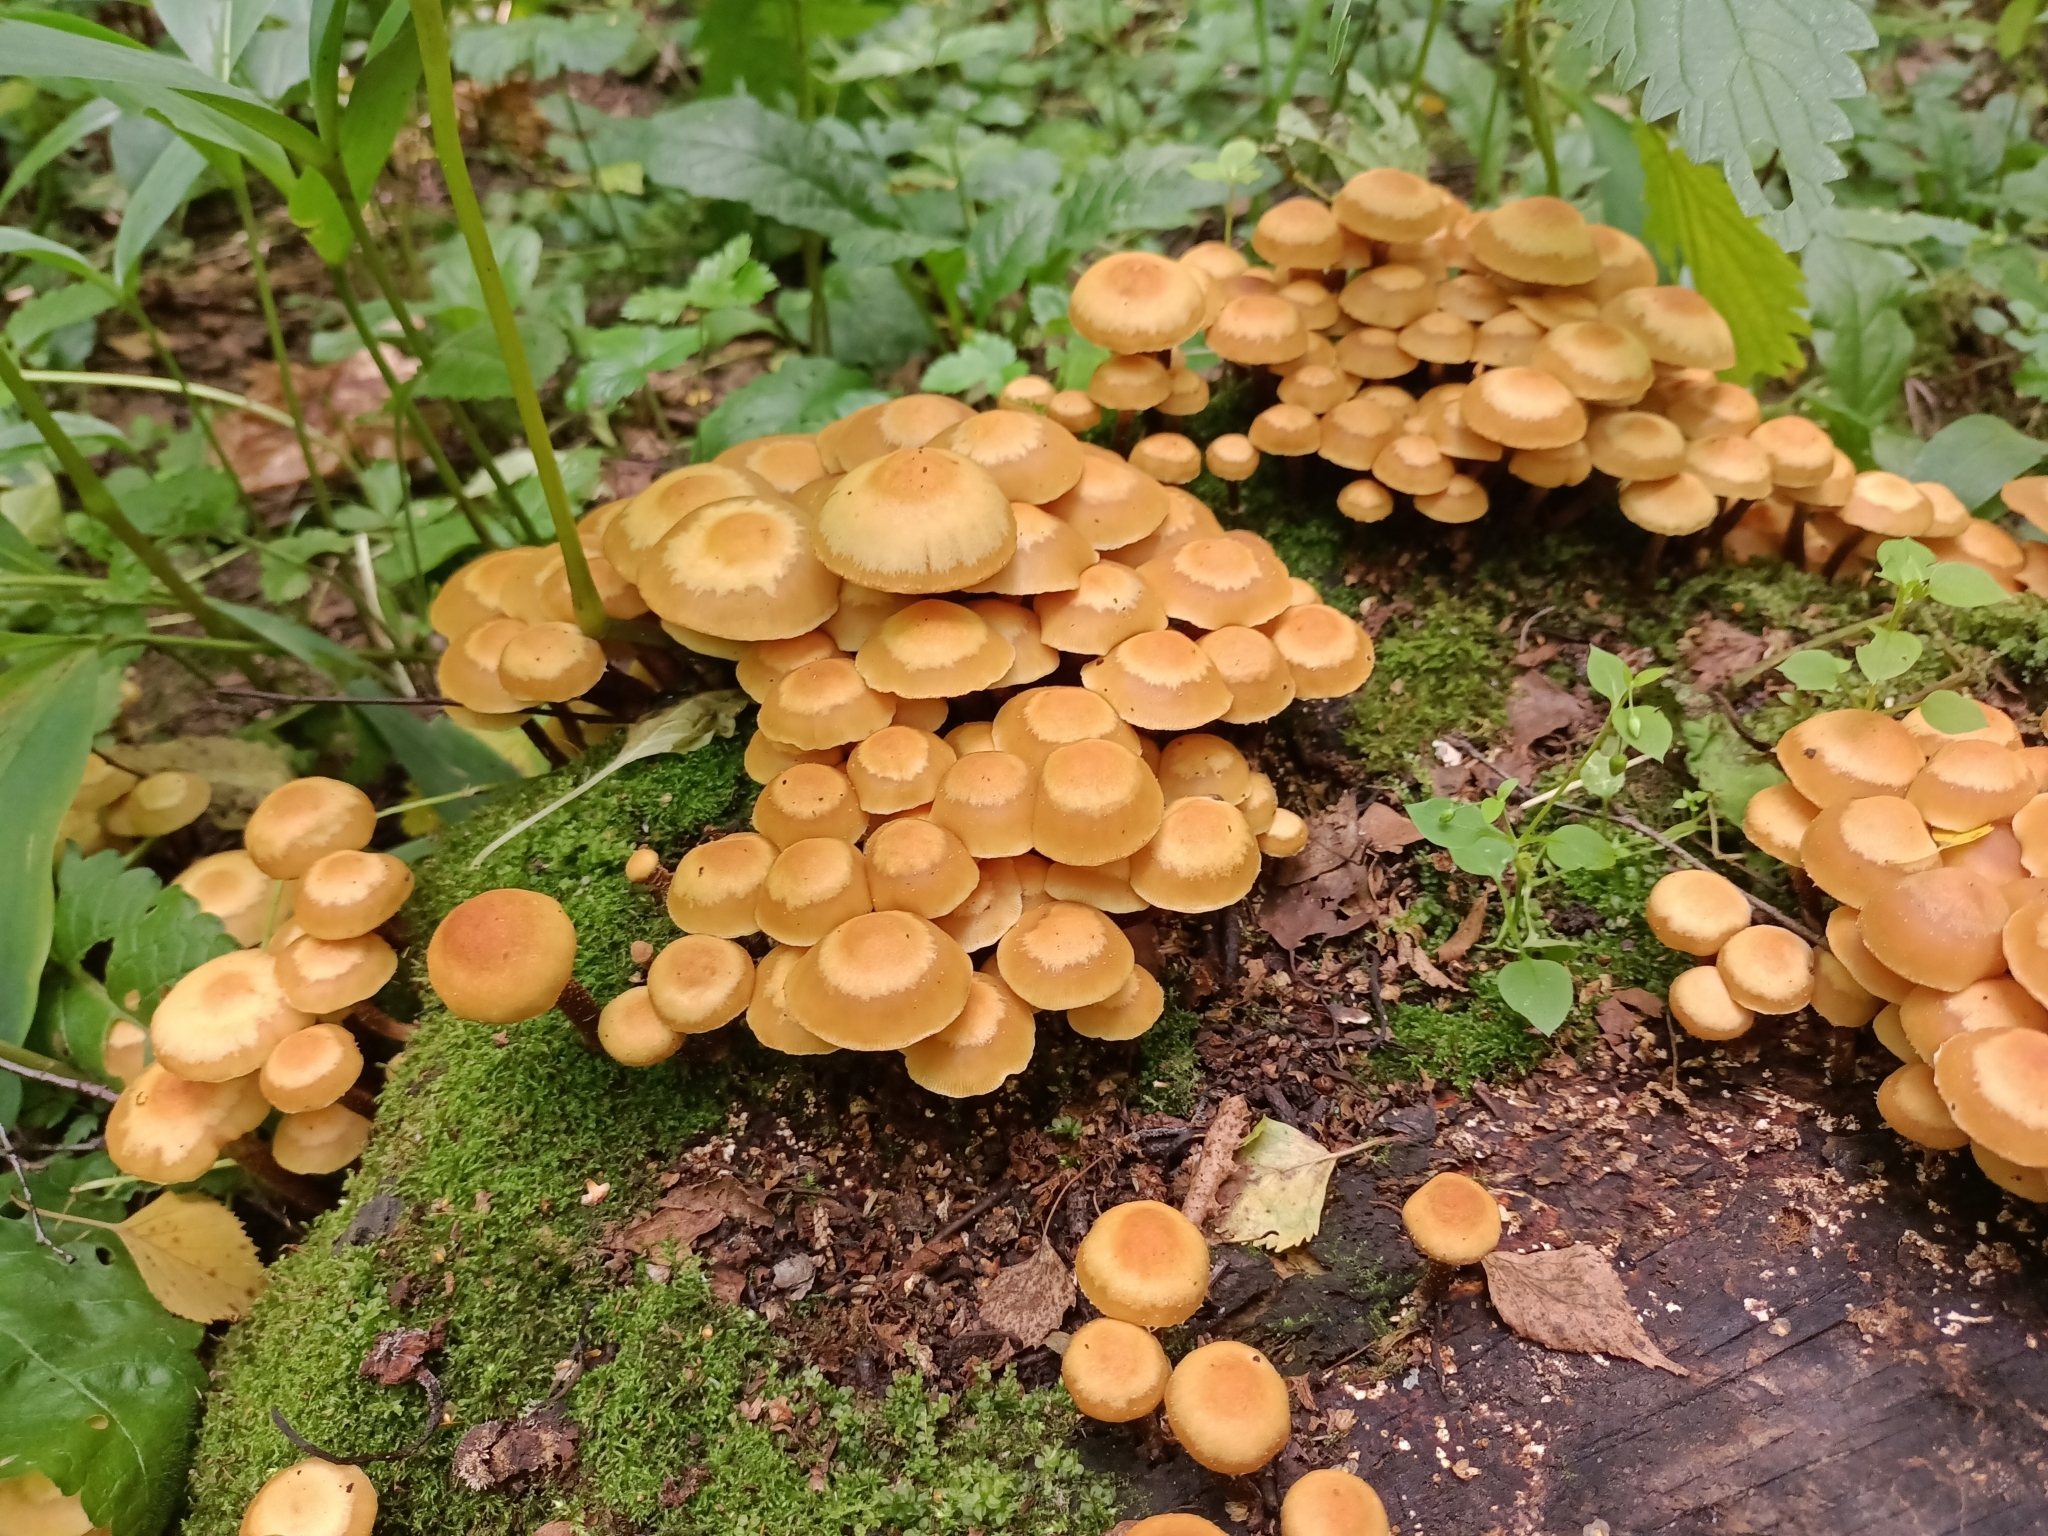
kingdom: Fungi
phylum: Basidiomycota
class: Agaricomycetes
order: Agaricales
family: Strophariaceae
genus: Kuehneromyces
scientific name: Kuehneromyces mutabilis
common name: Sheathed woodtuft
